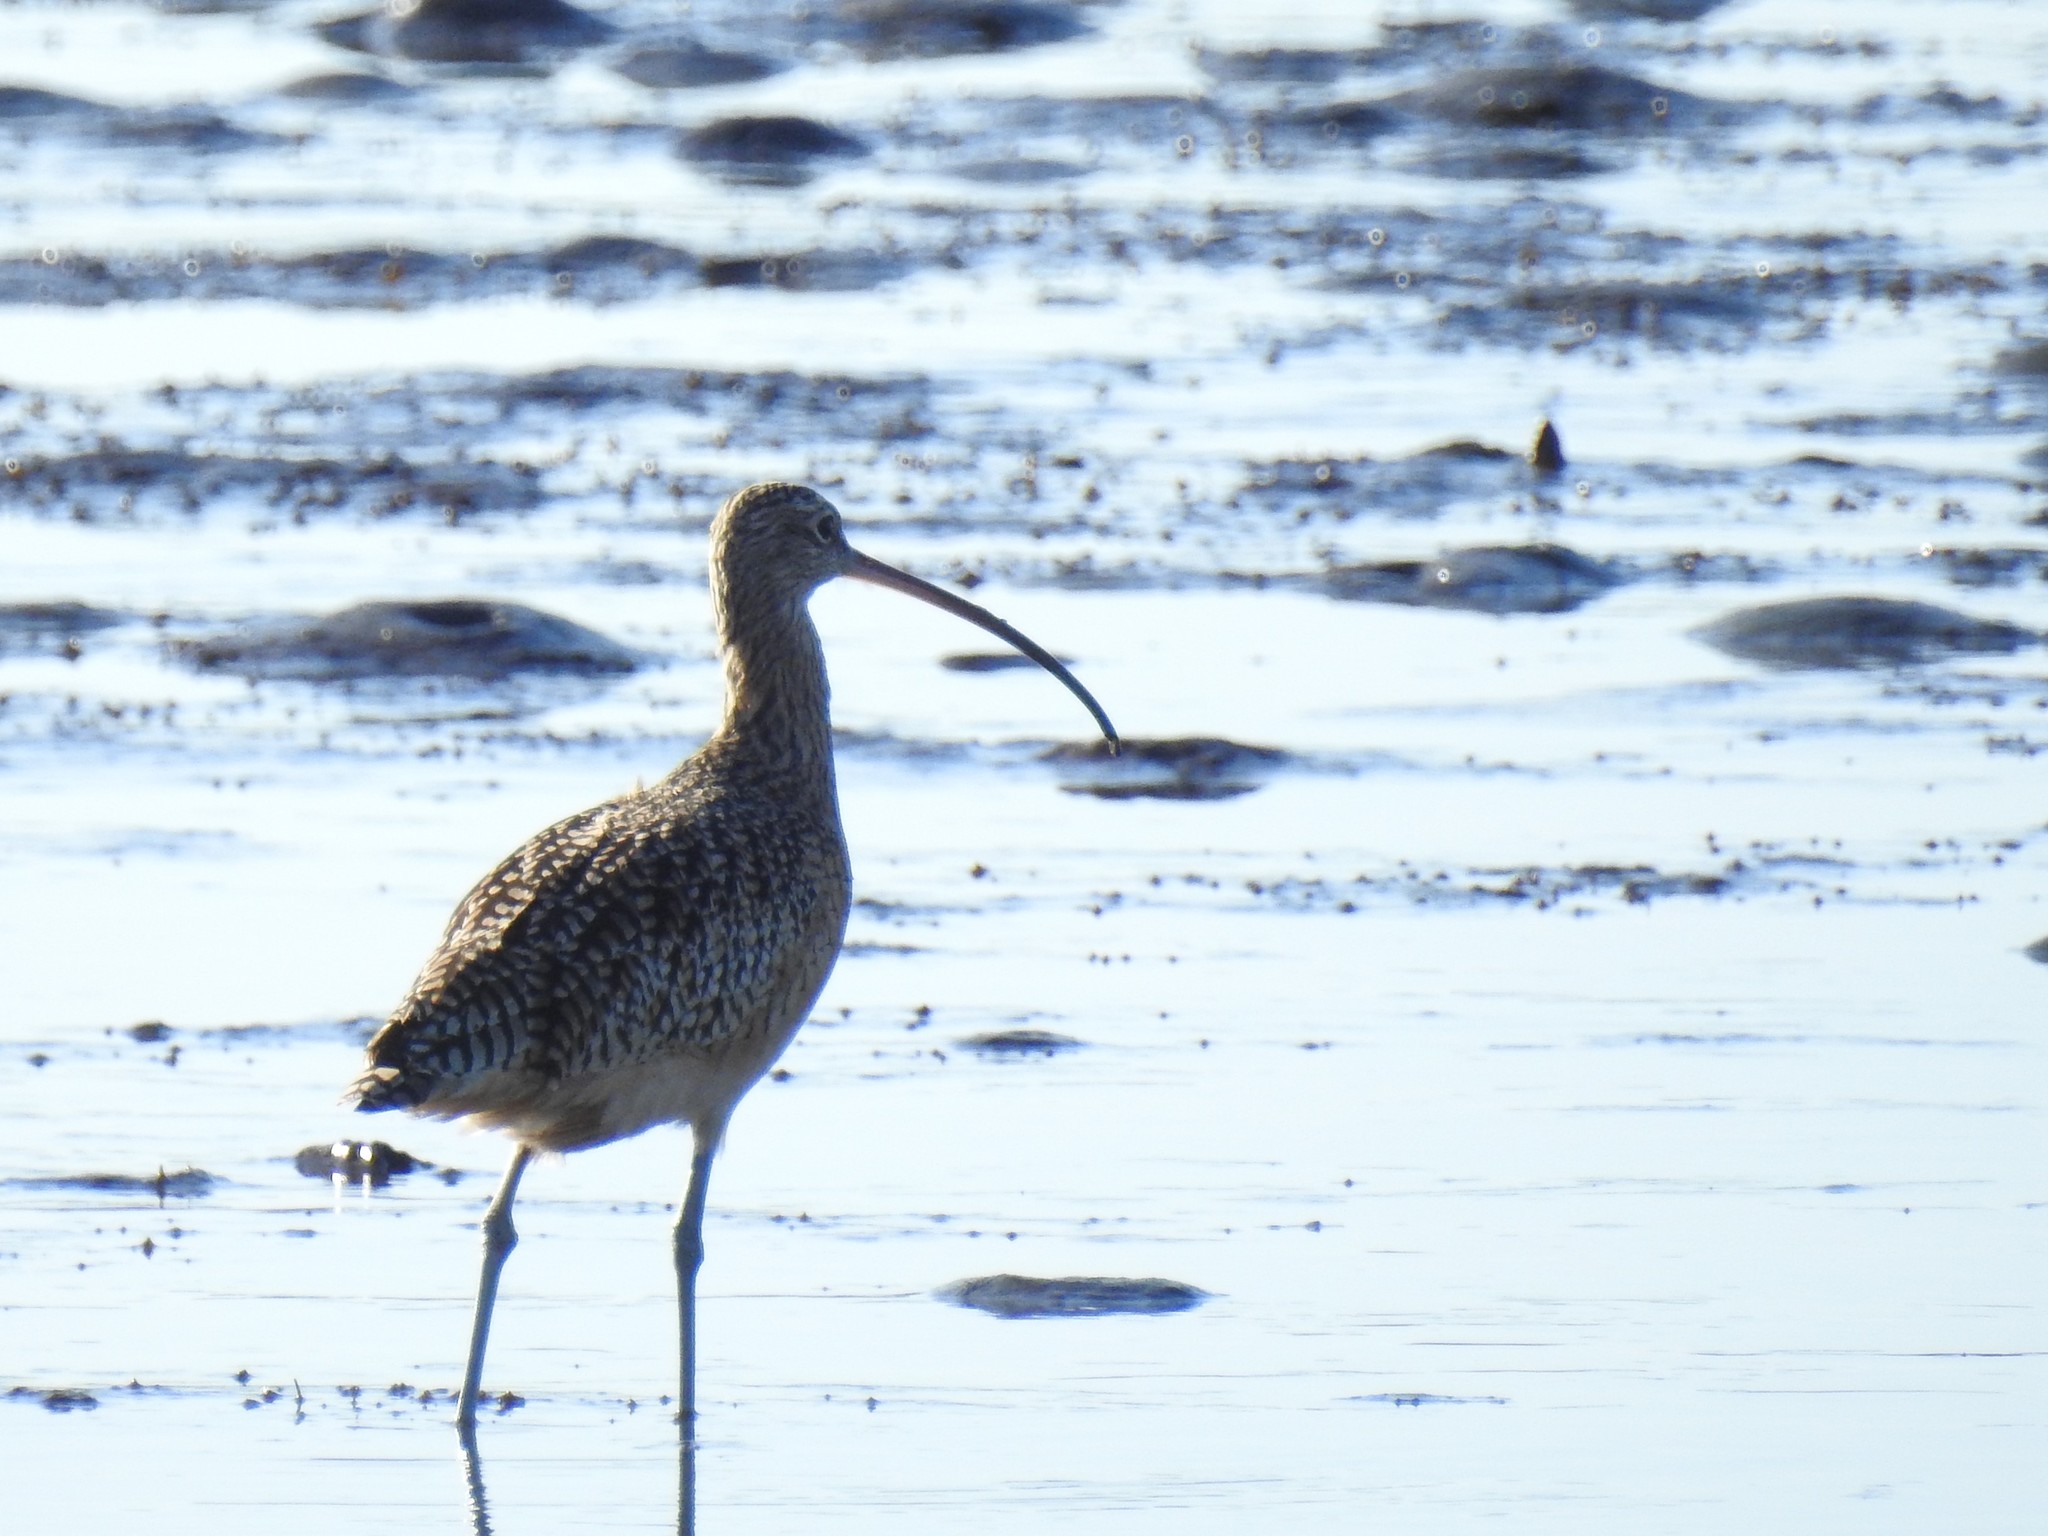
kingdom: Animalia
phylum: Chordata
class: Aves
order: Charadriiformes
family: Scolopacidae
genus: Numenius
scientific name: Numenius americanus
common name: Long-billed curlew
